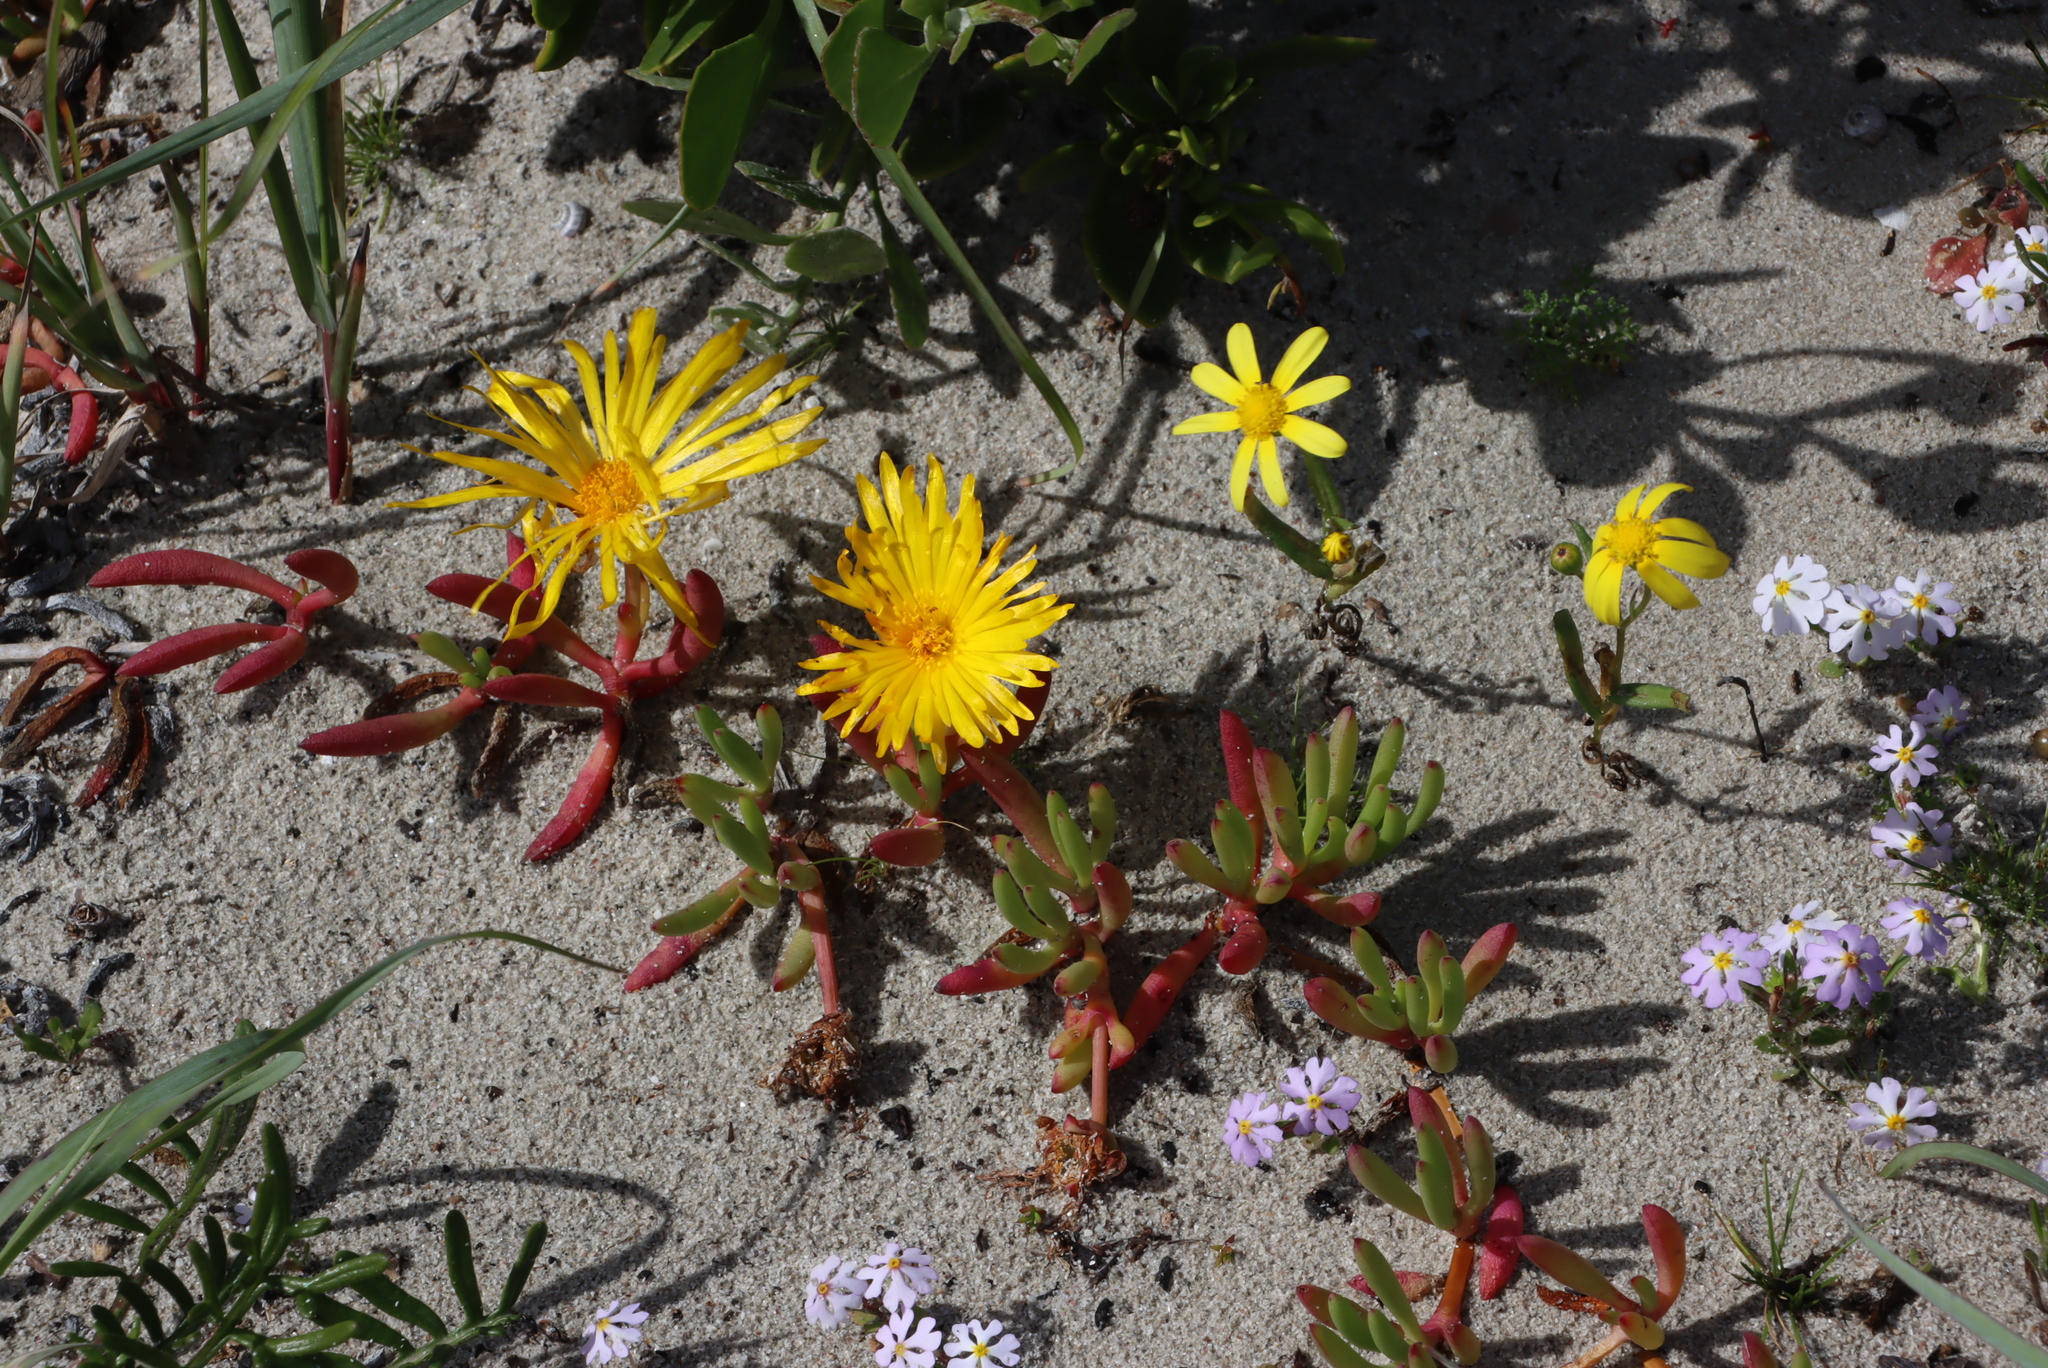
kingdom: Plantae
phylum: Tracheophyta
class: Magnoliopsida
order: Caryophyllales
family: Aizoaceae
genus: Jordaaniella
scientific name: Jordaaniella dubia
